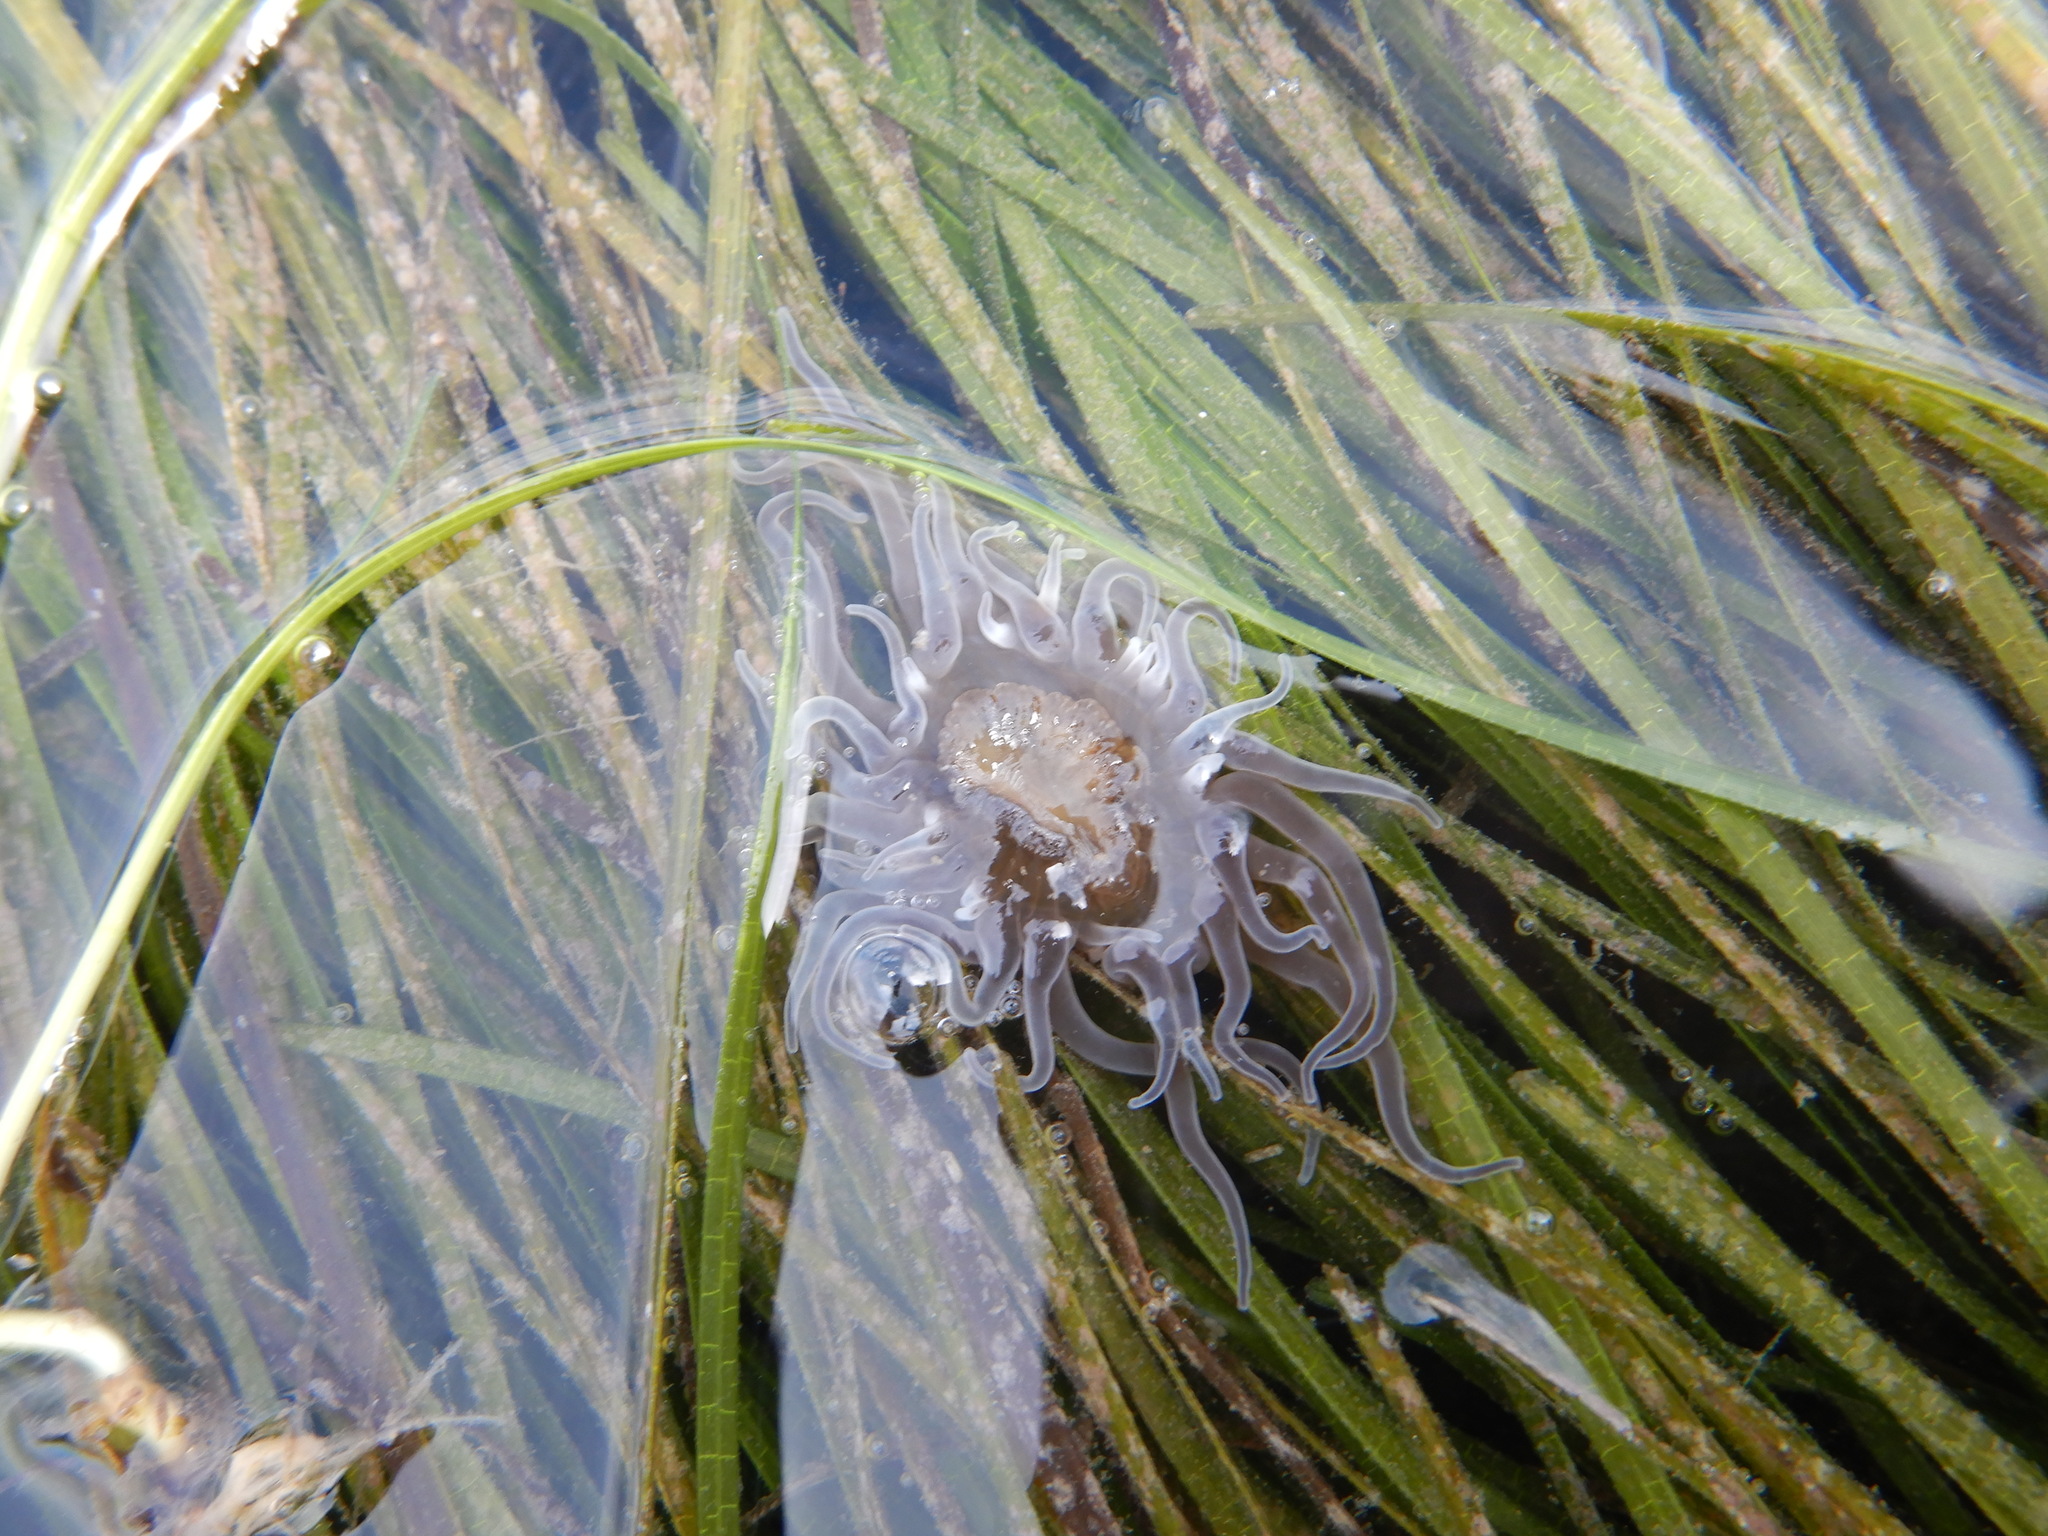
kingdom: Animalia
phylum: Cnidaria
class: Anthozoa
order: Actiniaria
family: Actiniidae
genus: Paranemonia
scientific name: Paranemonia cinerea
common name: Grass crack anemone
